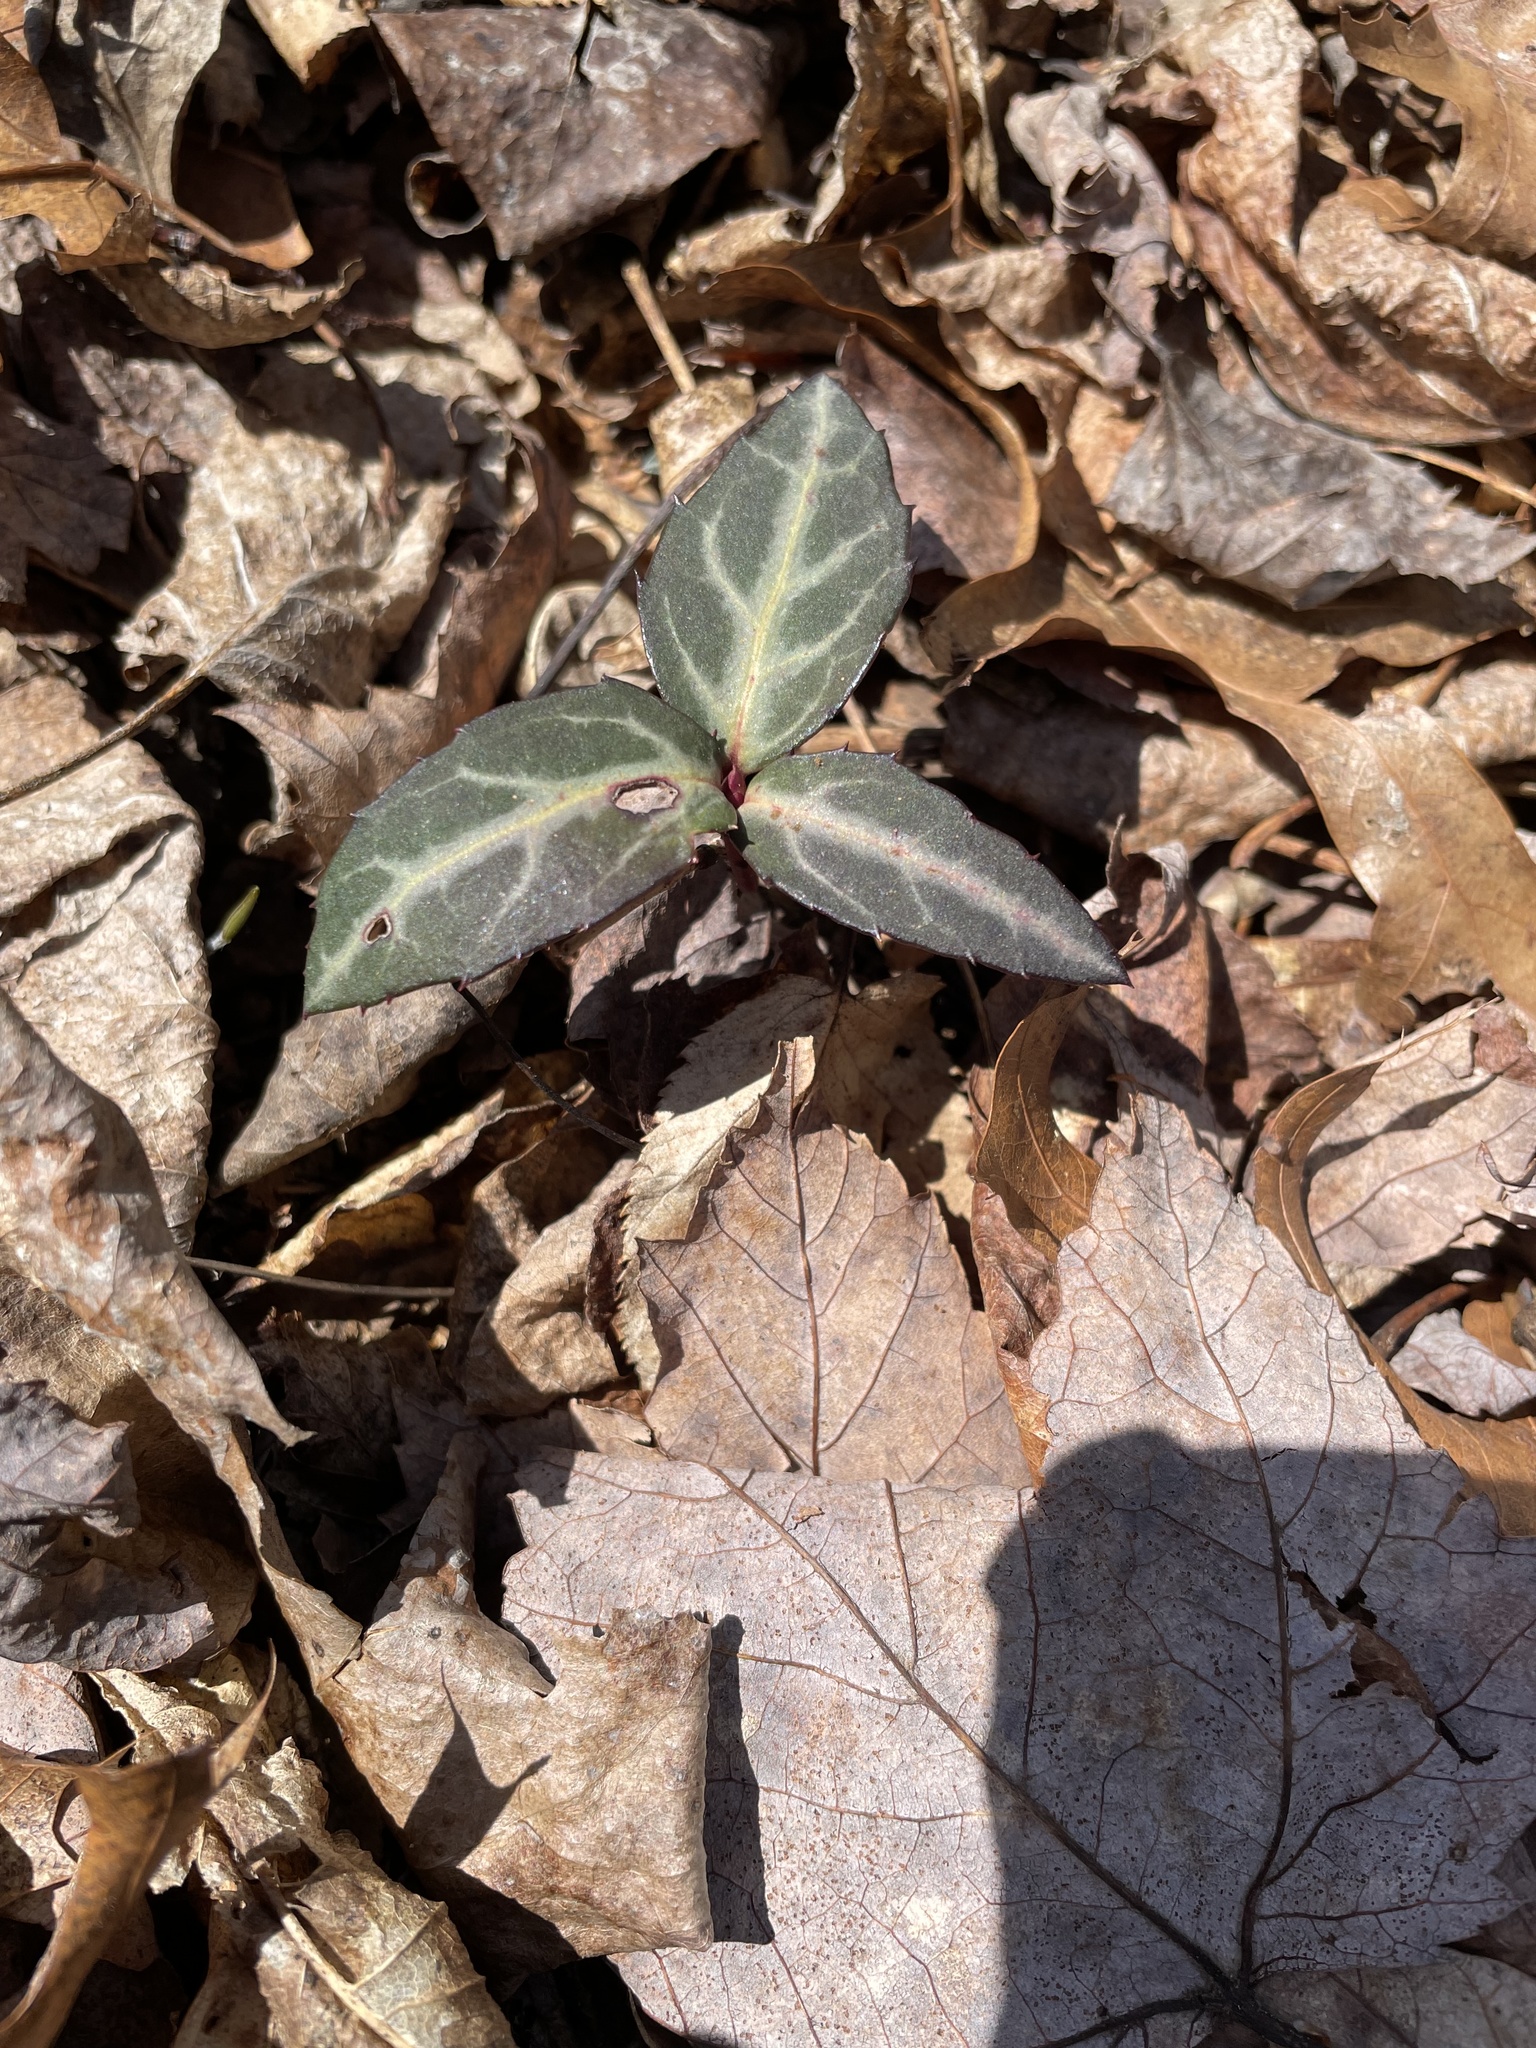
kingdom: Plantae
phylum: Tracheophyta
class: Magnoliopsida
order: Ericales
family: Ericaceae
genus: Chimaphila
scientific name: Chimaphila maculata
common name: Spotted pipsissewa
